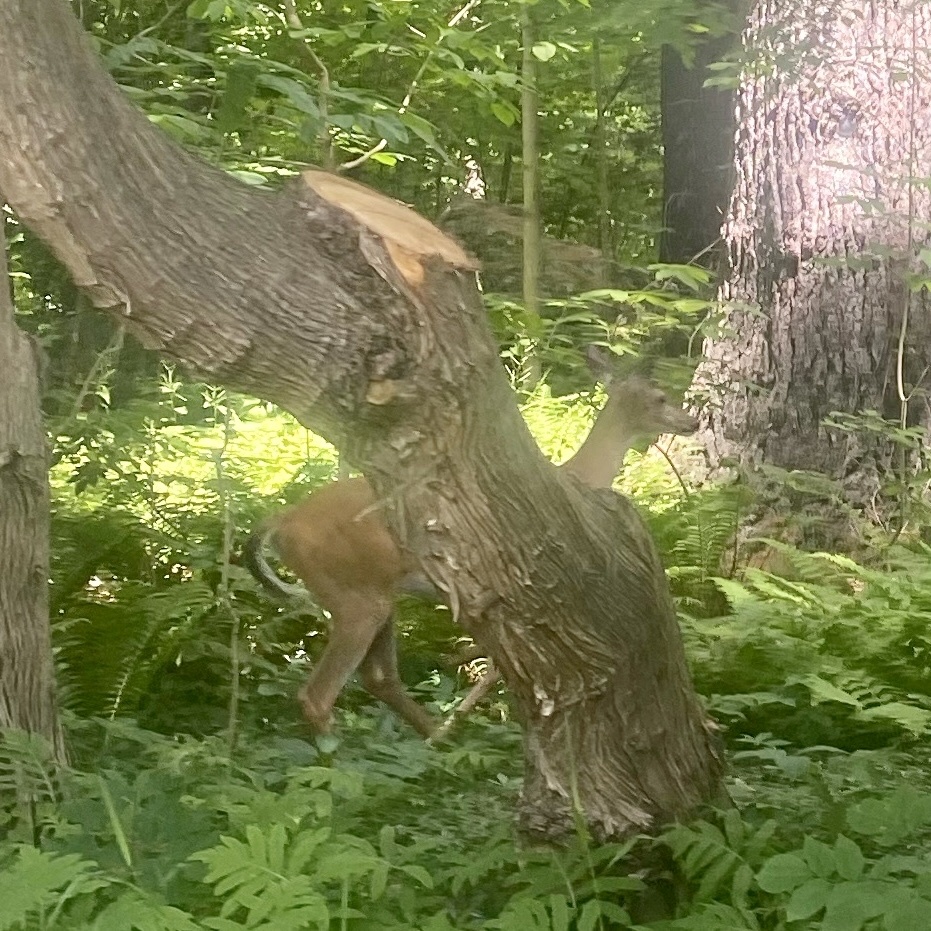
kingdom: Animalia
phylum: Chordata
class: Mammalia
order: Artiodactyla
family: Cervidae
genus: Odocoileus
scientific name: Odocoileus virginianus
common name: White-tailed deer
